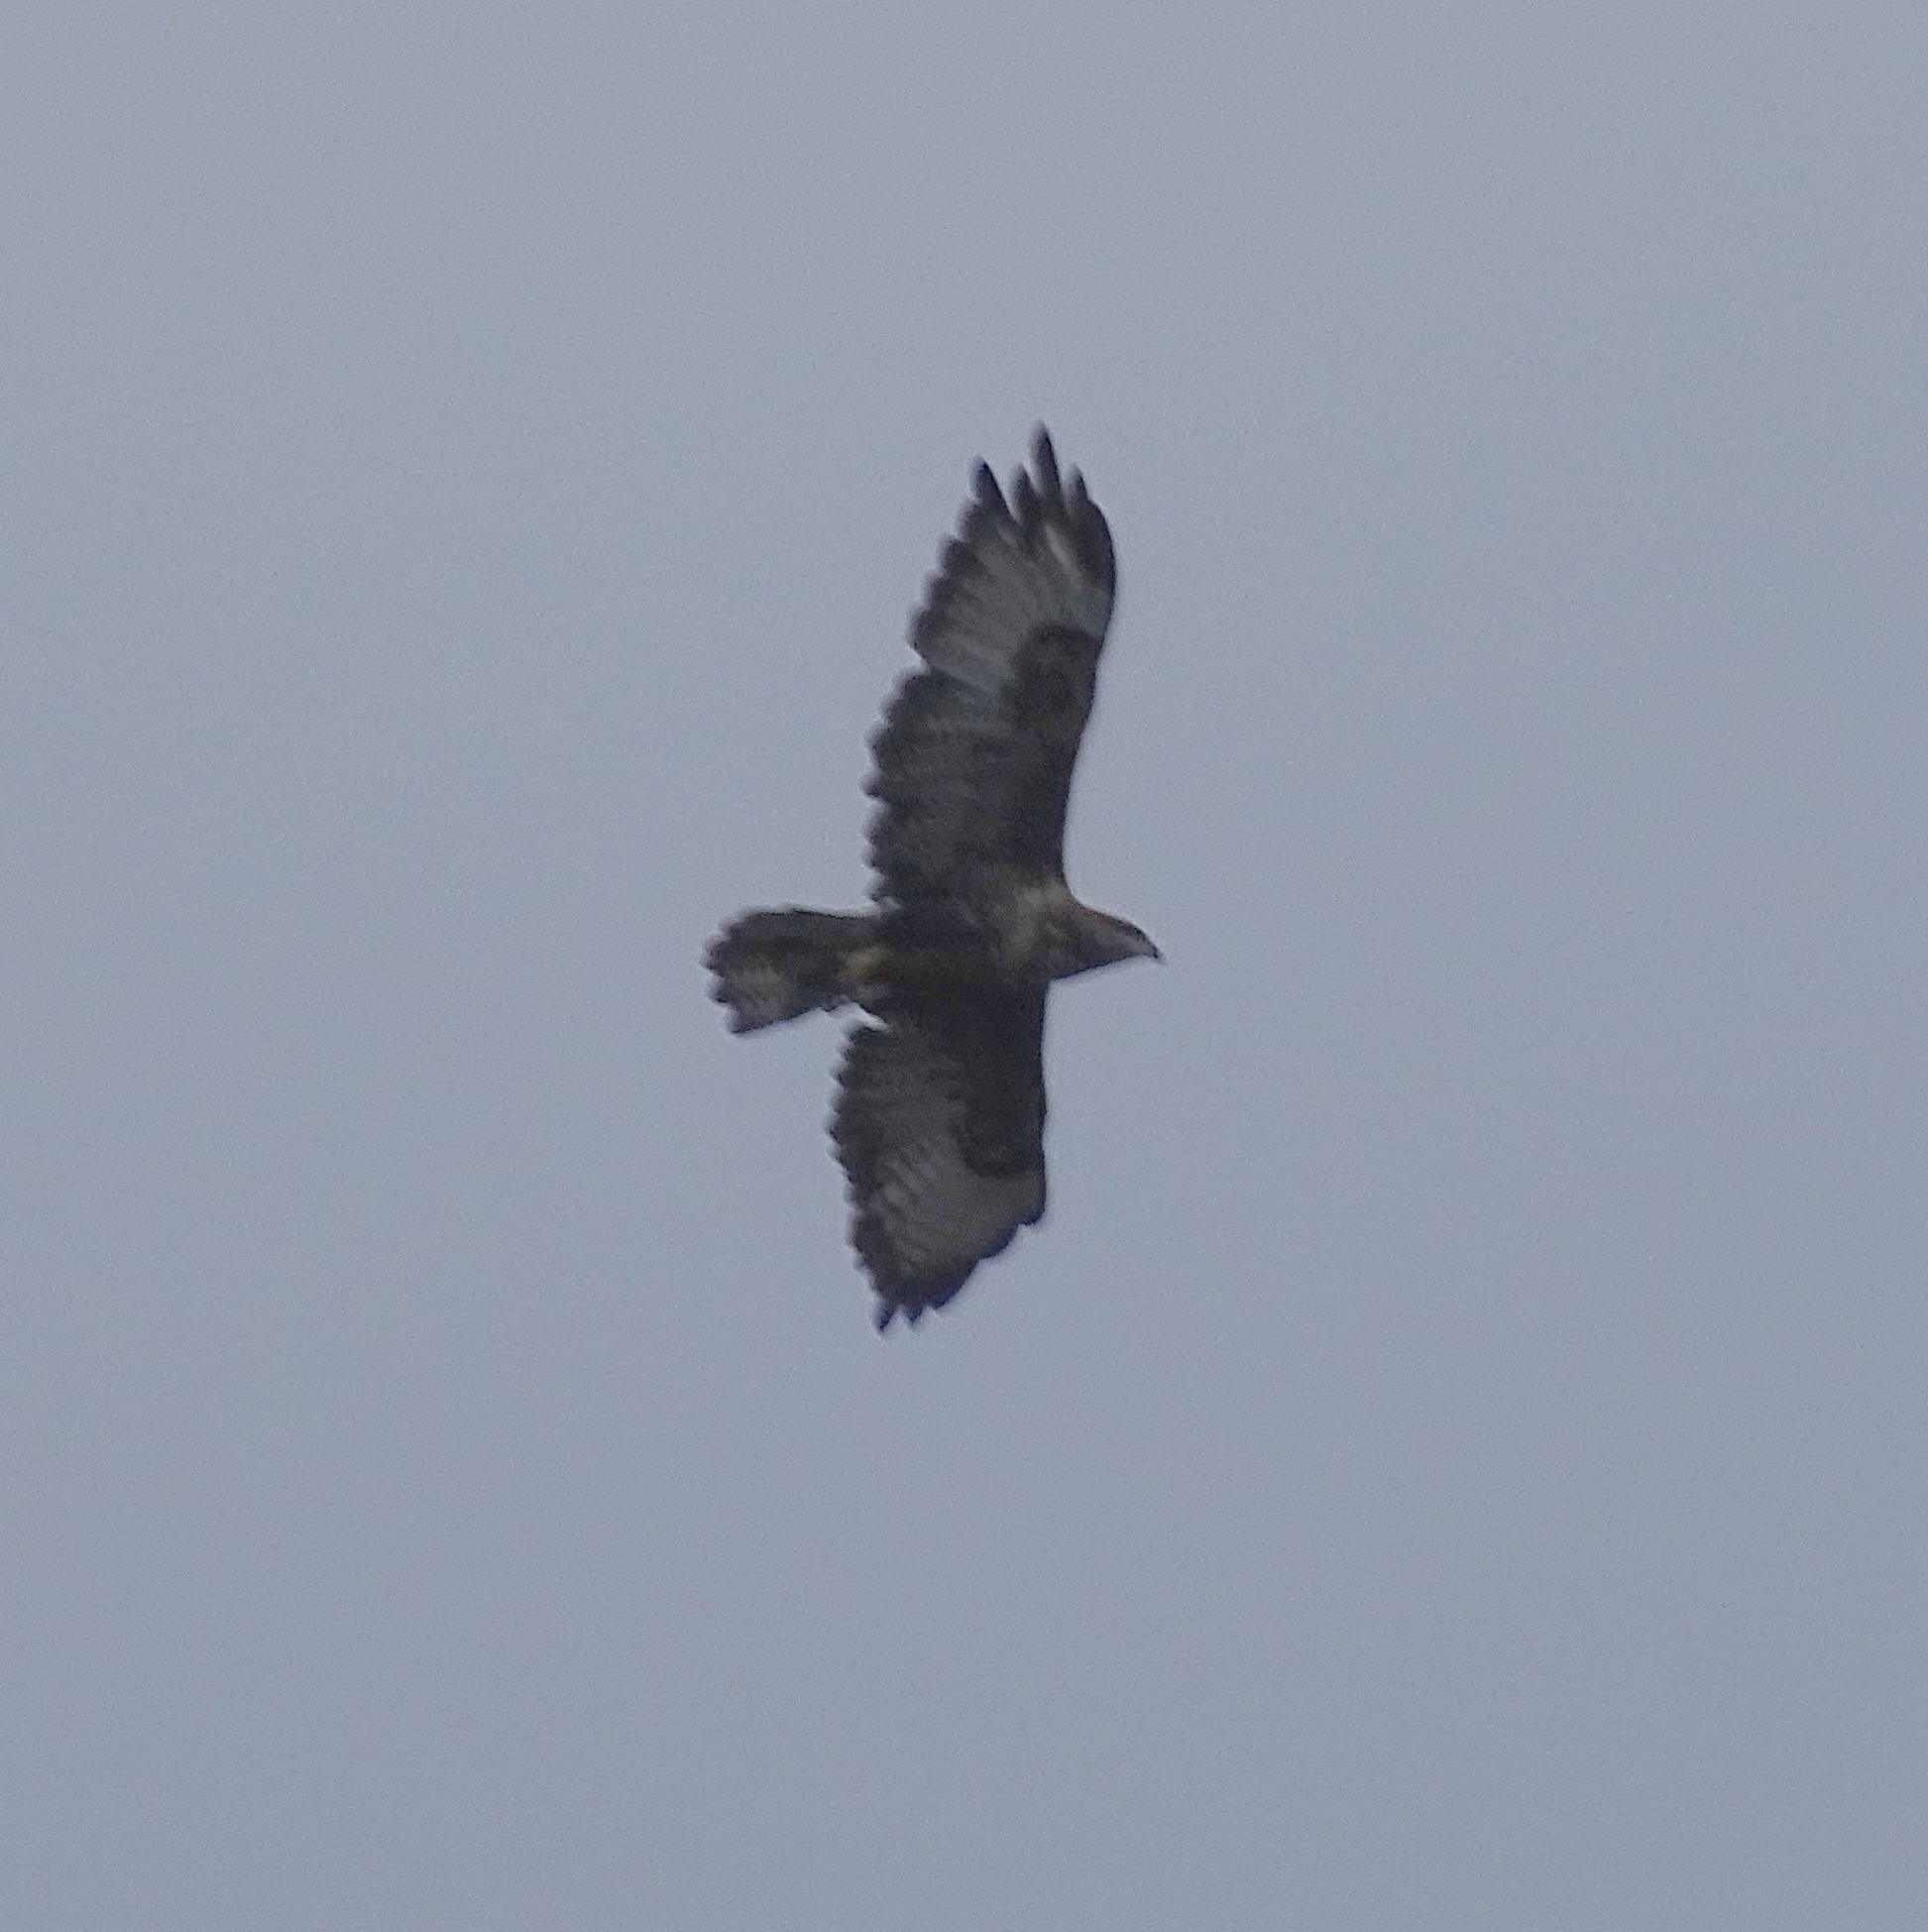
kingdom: Animalia
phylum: Chordata
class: Aves
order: Accipitriformes
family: Accipitridae
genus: Buteo
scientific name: Buteo buteo
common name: Common buzzard
